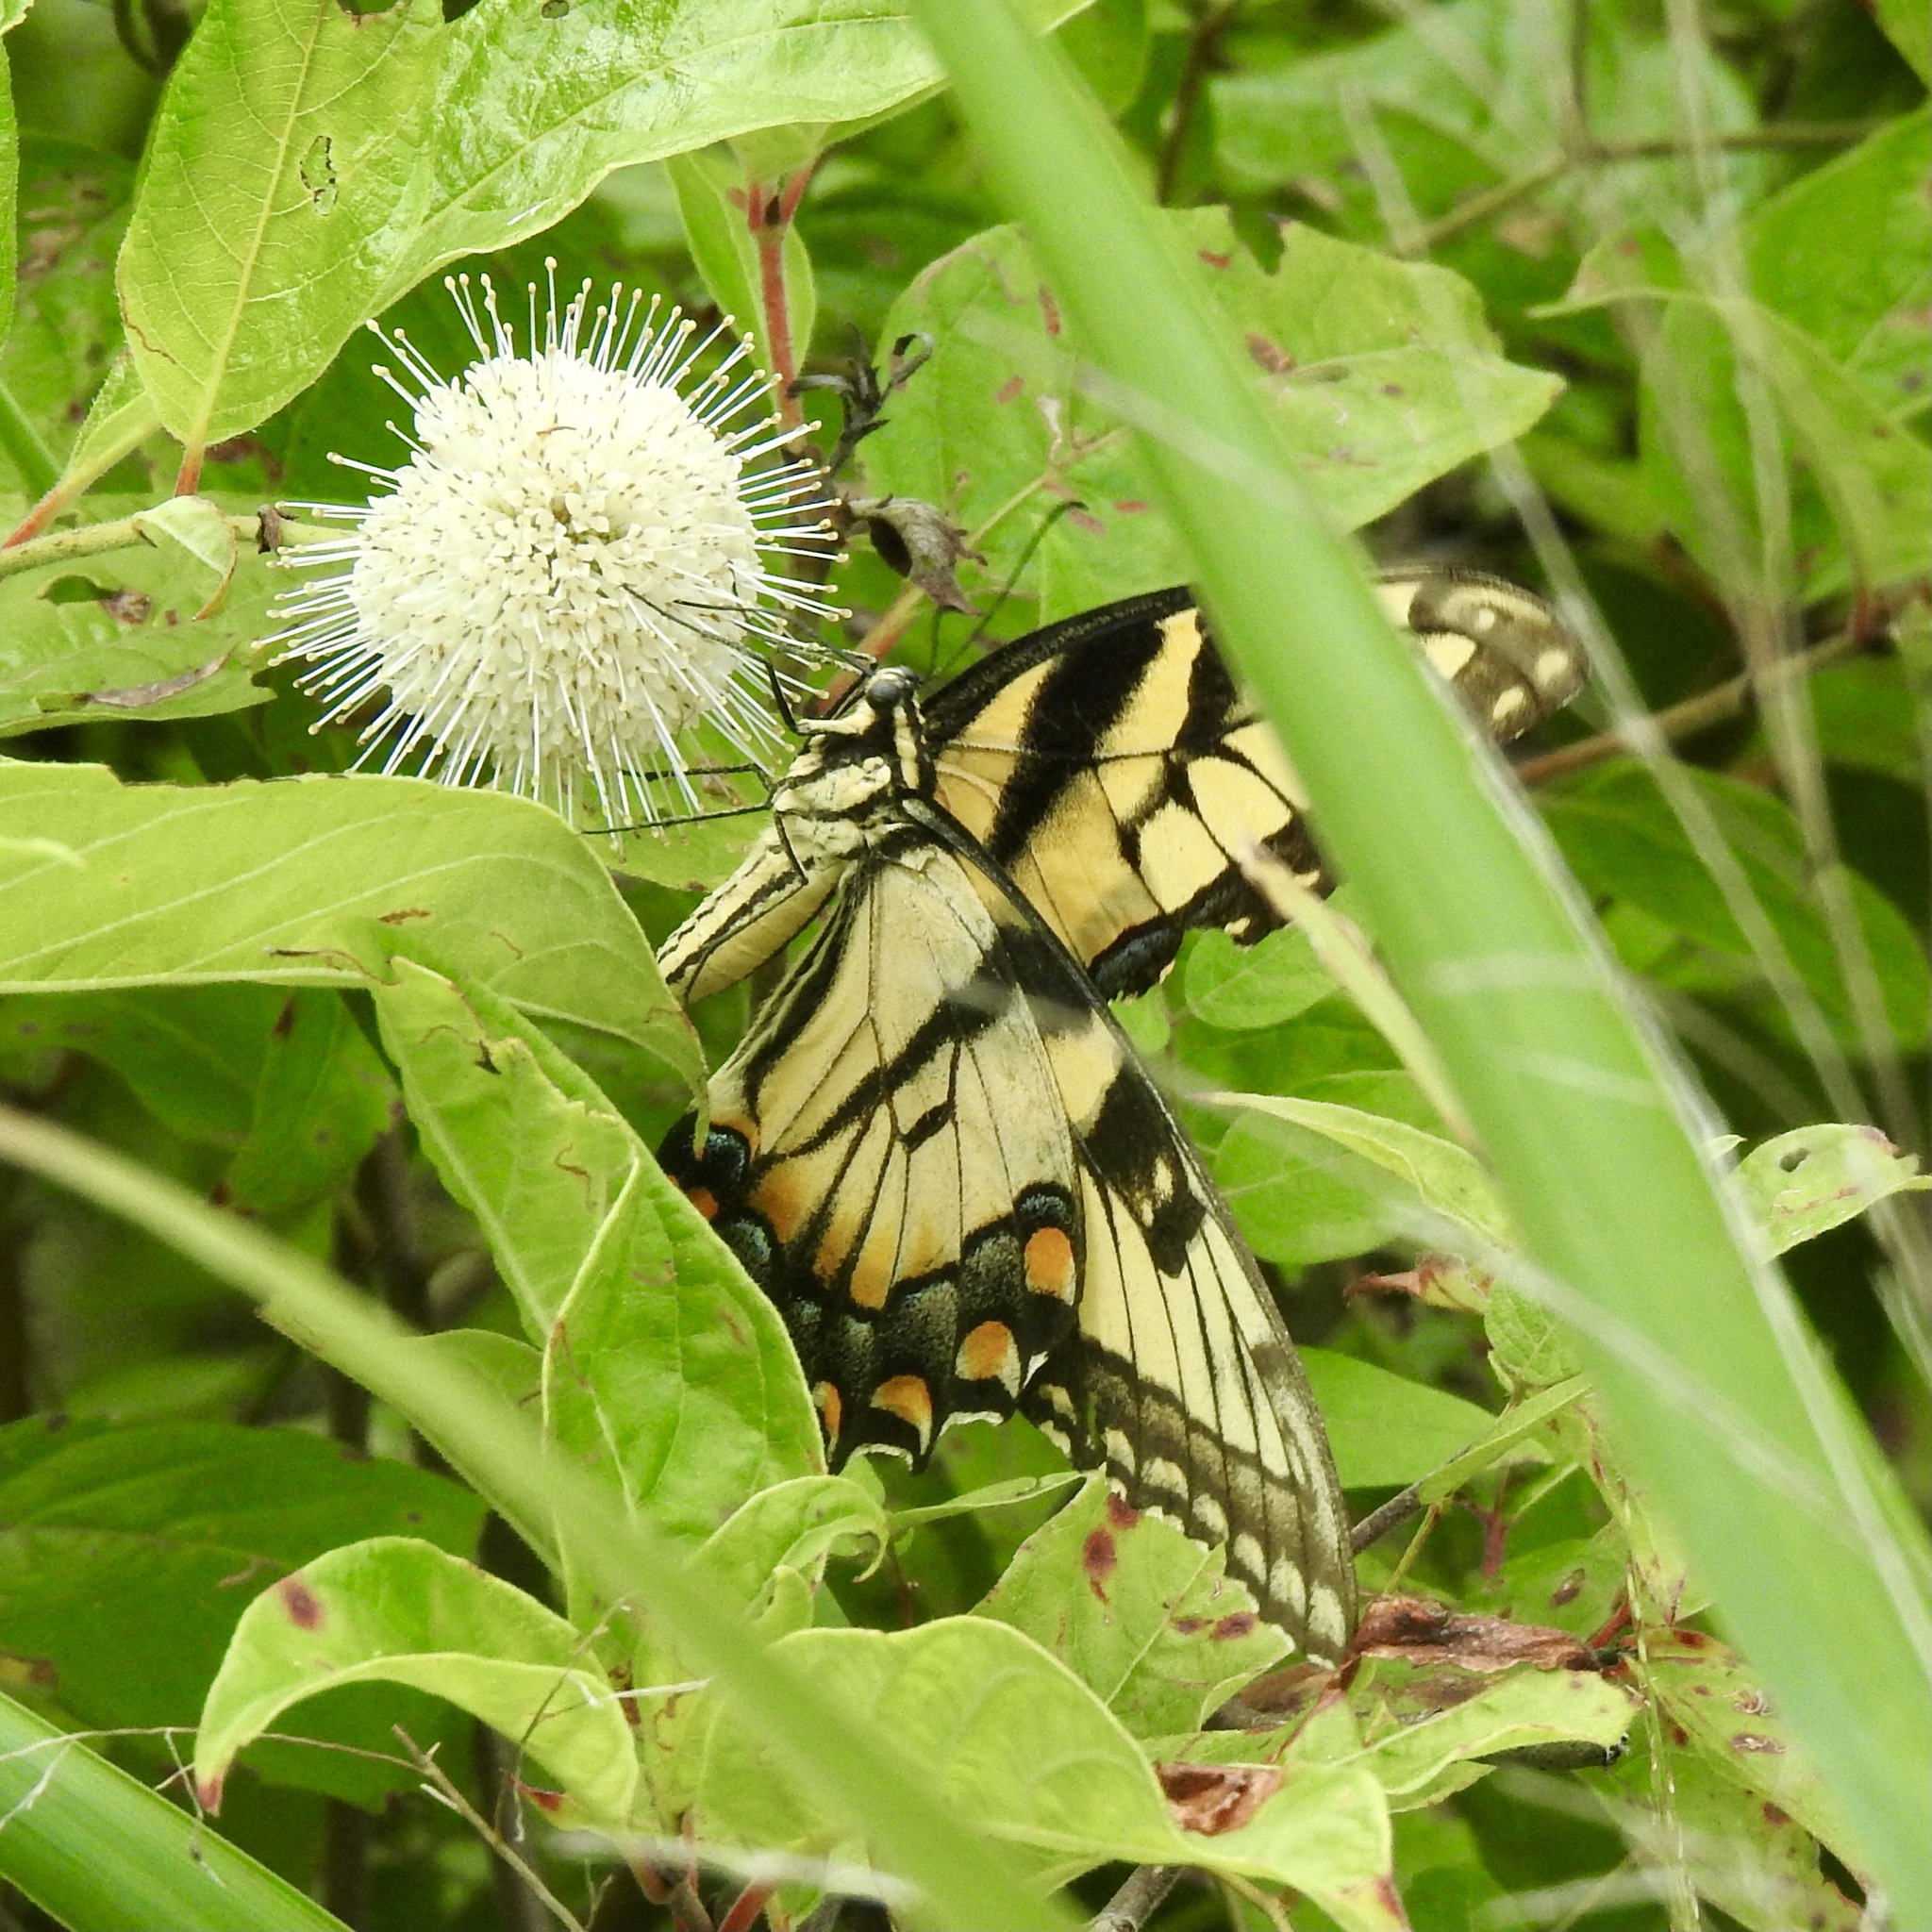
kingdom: Animalia
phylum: Arthropoda
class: Insecta
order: Lepidoptera
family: Papilionidae
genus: Papilio
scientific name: Papilio glaucus
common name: Tiger swallowtail
